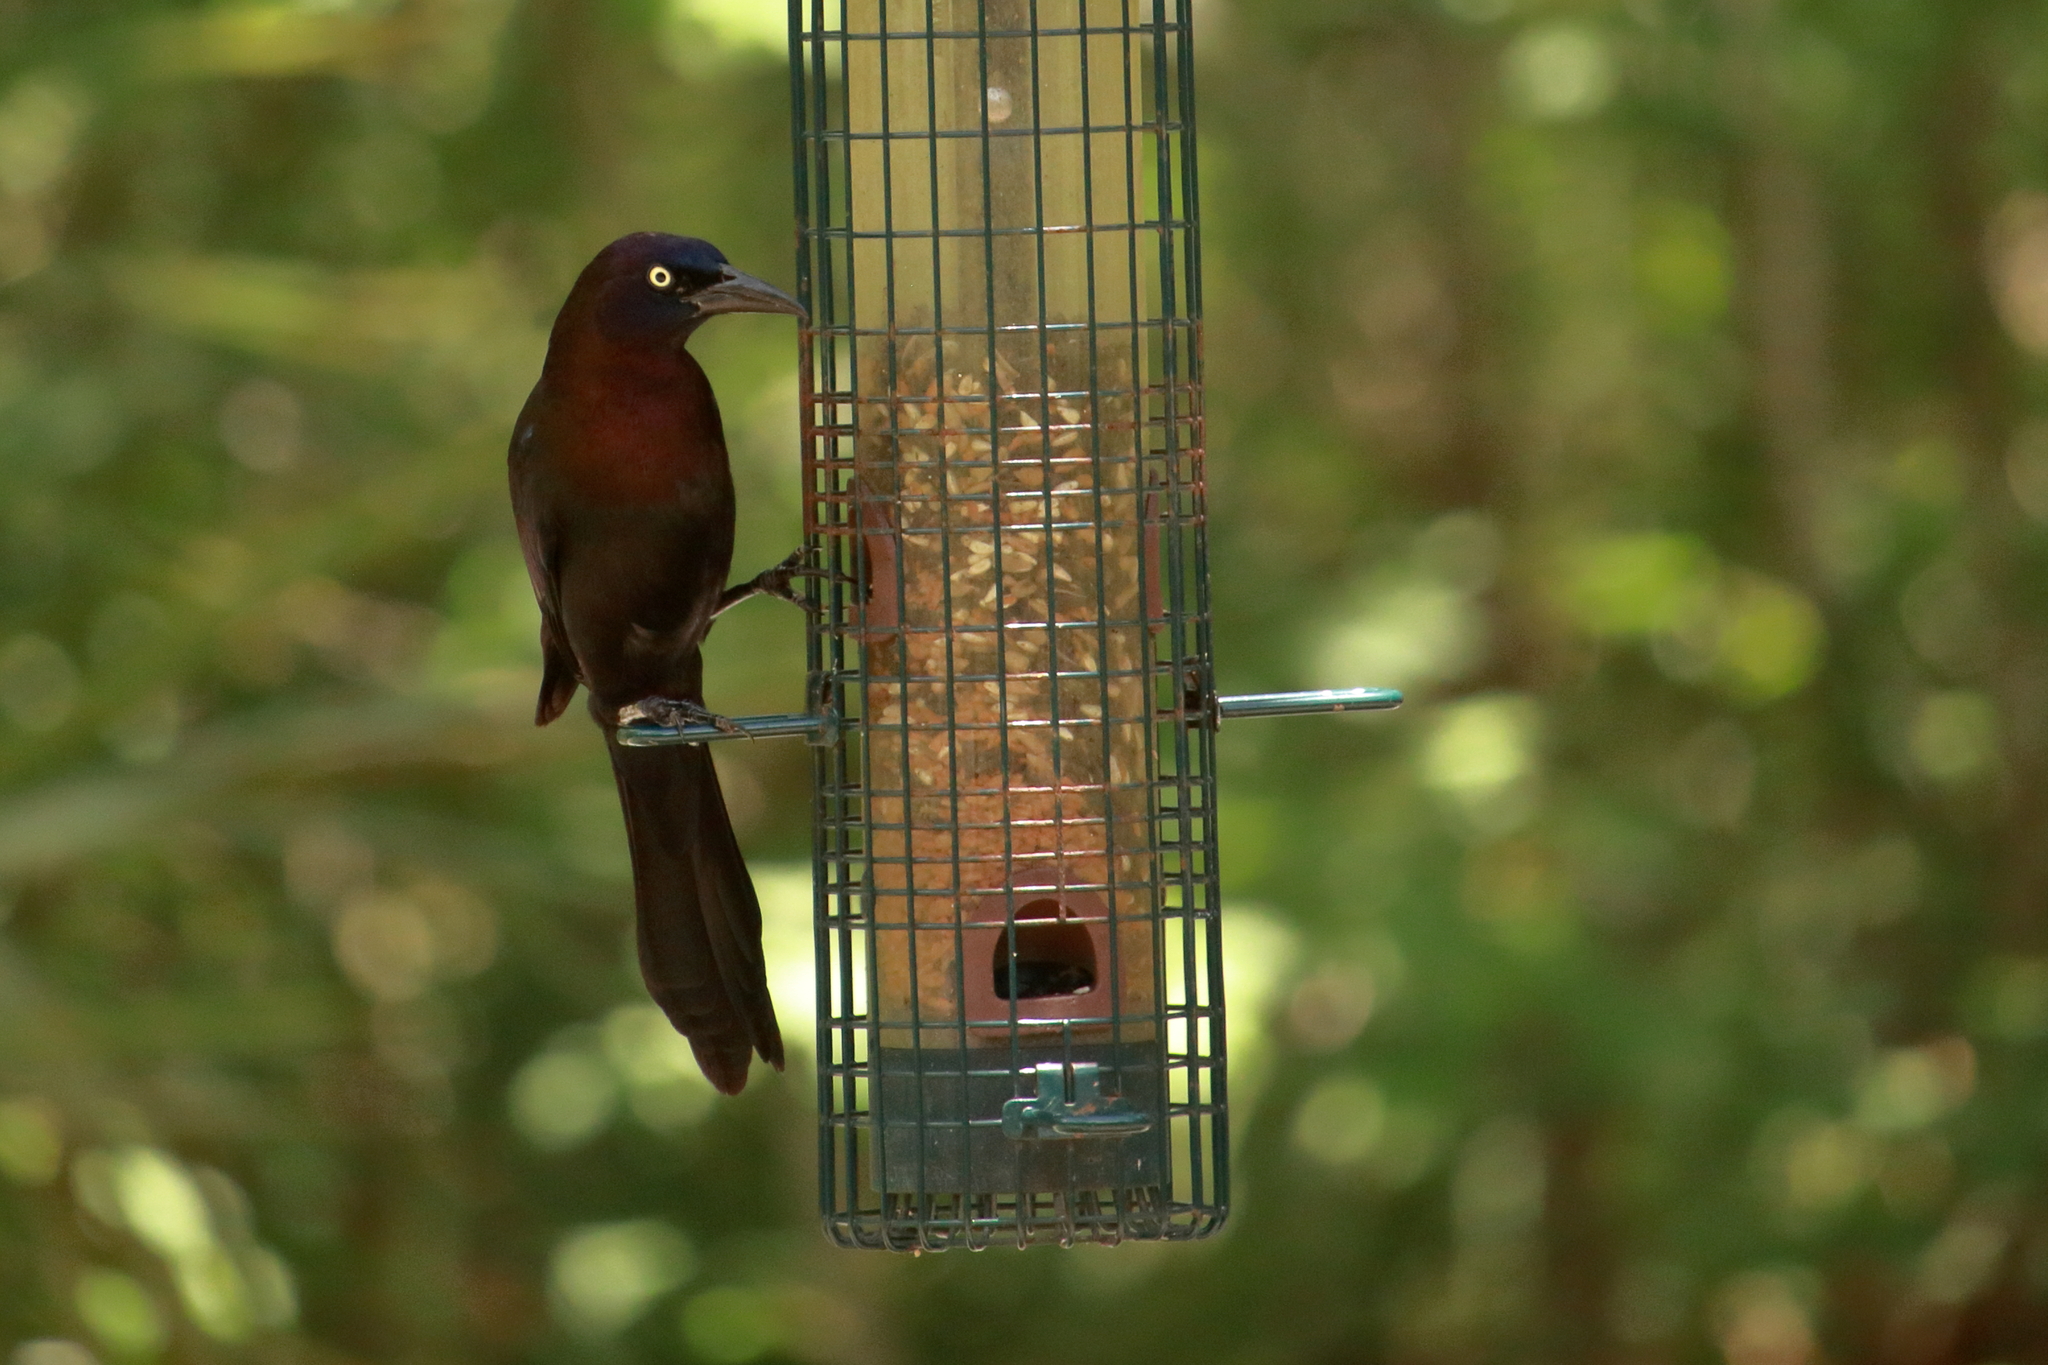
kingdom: Animalia
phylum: Chordata
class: Aves
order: Passeriformes
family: Icteridae
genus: Quiscalus
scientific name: Quiscalus quiscula
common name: Common grackle
